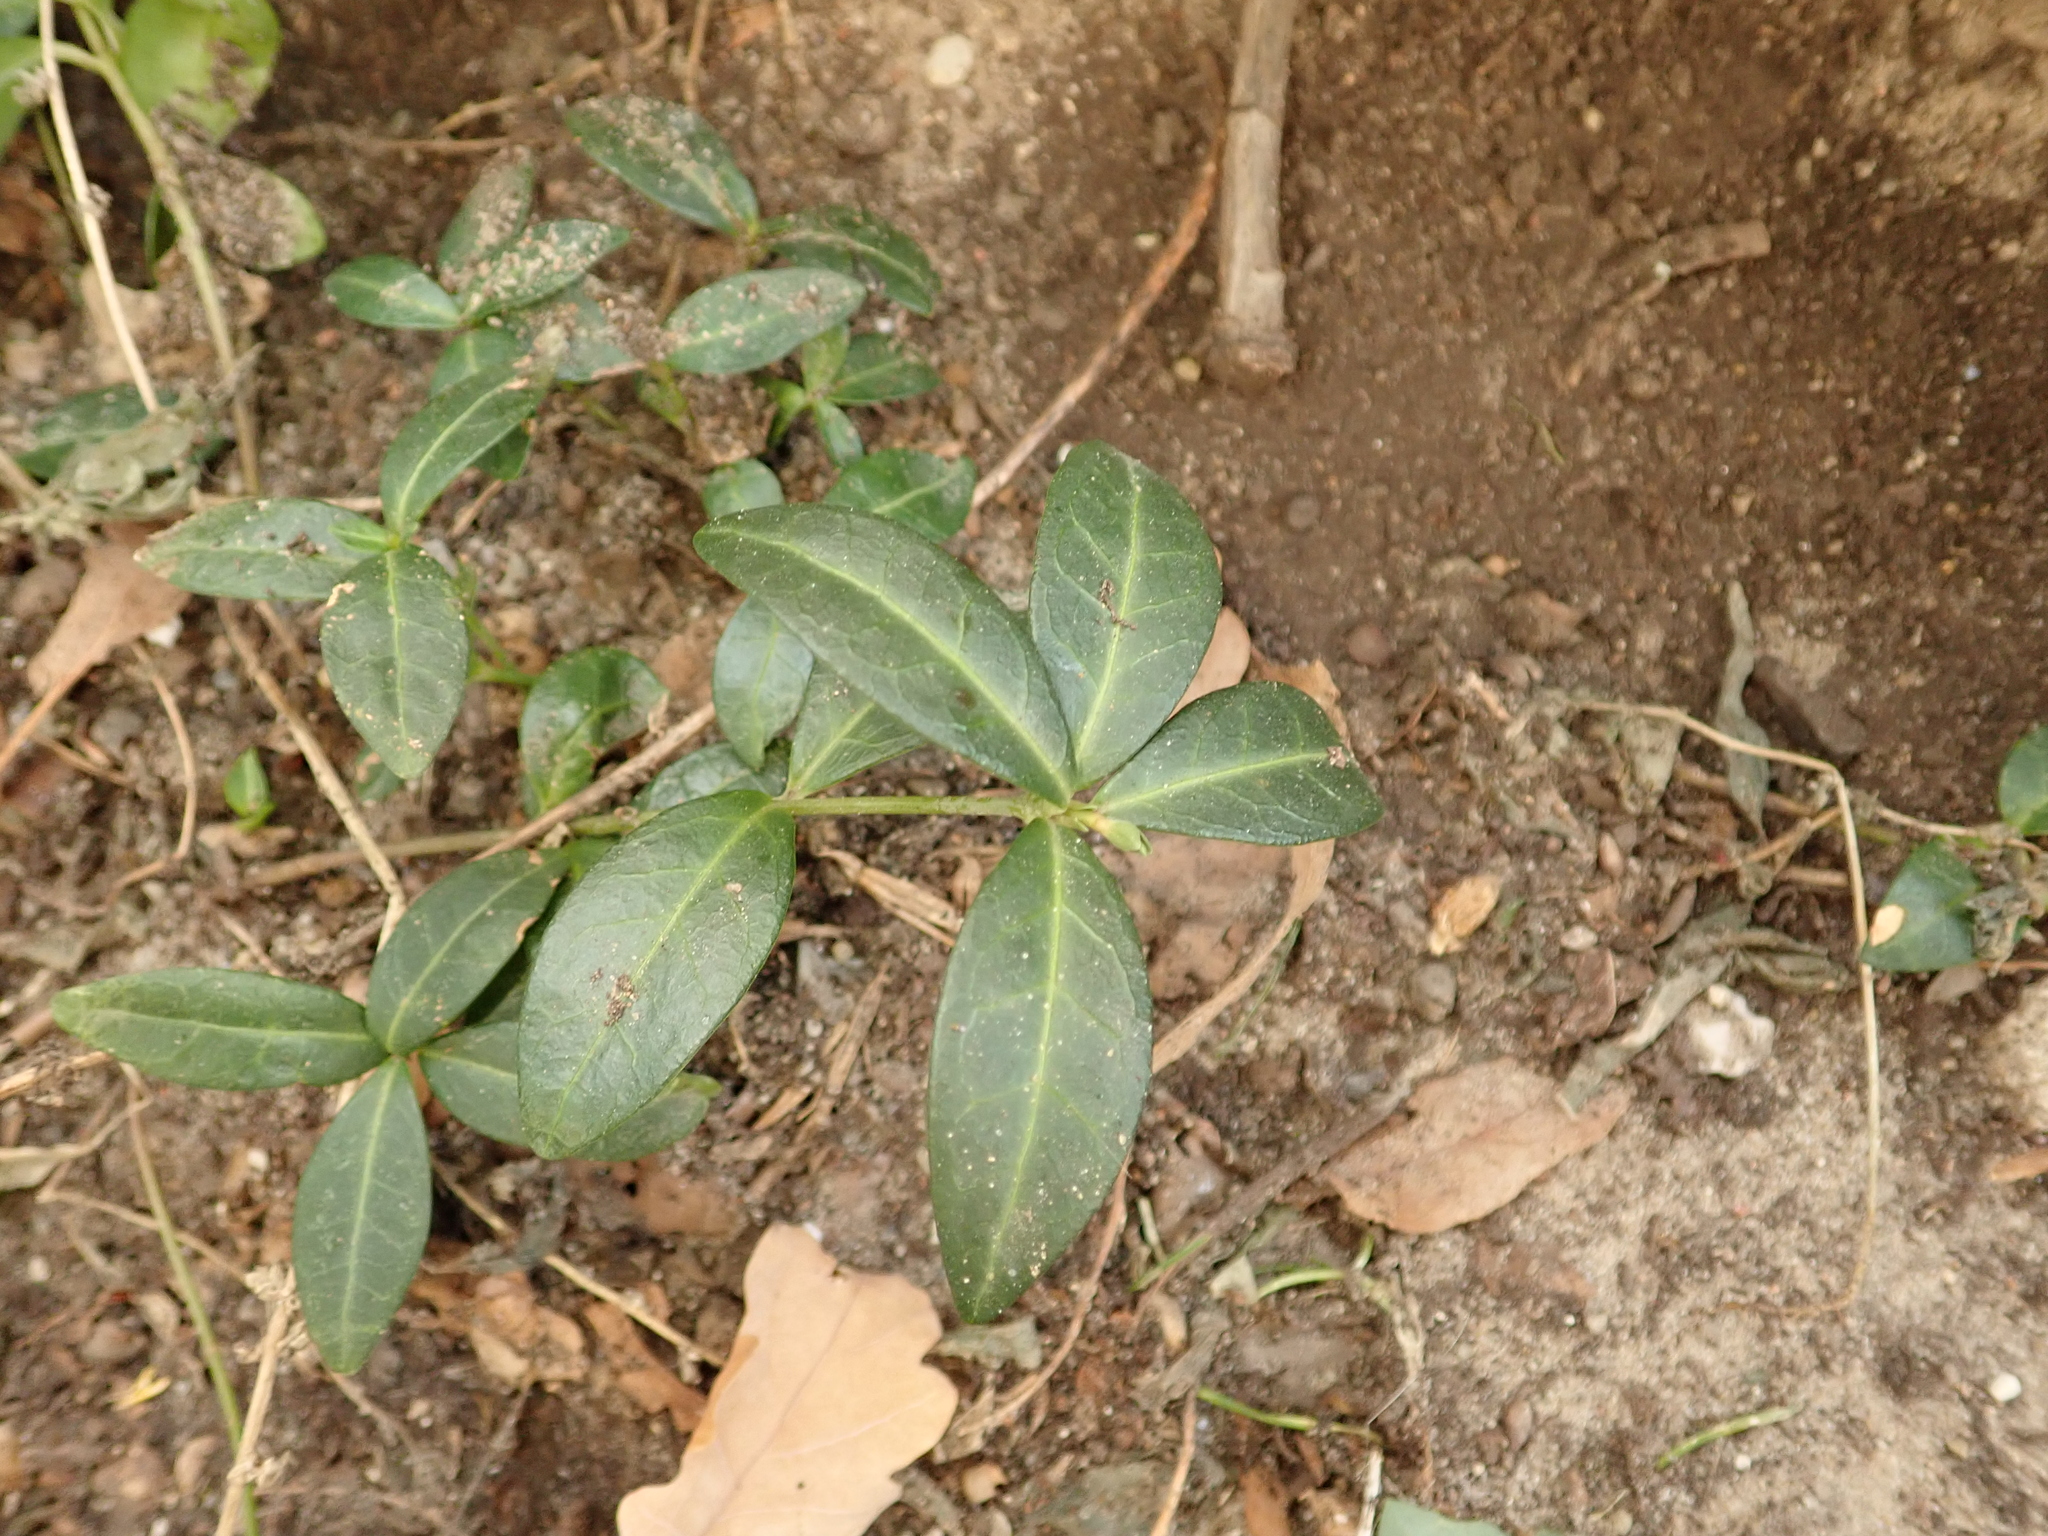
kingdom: Plantae
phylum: Tracheophyta
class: Magnoliopsida
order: Gentianales
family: Apocynaceae
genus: Vinca
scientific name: Vinca minor
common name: Lesser periwinkle
